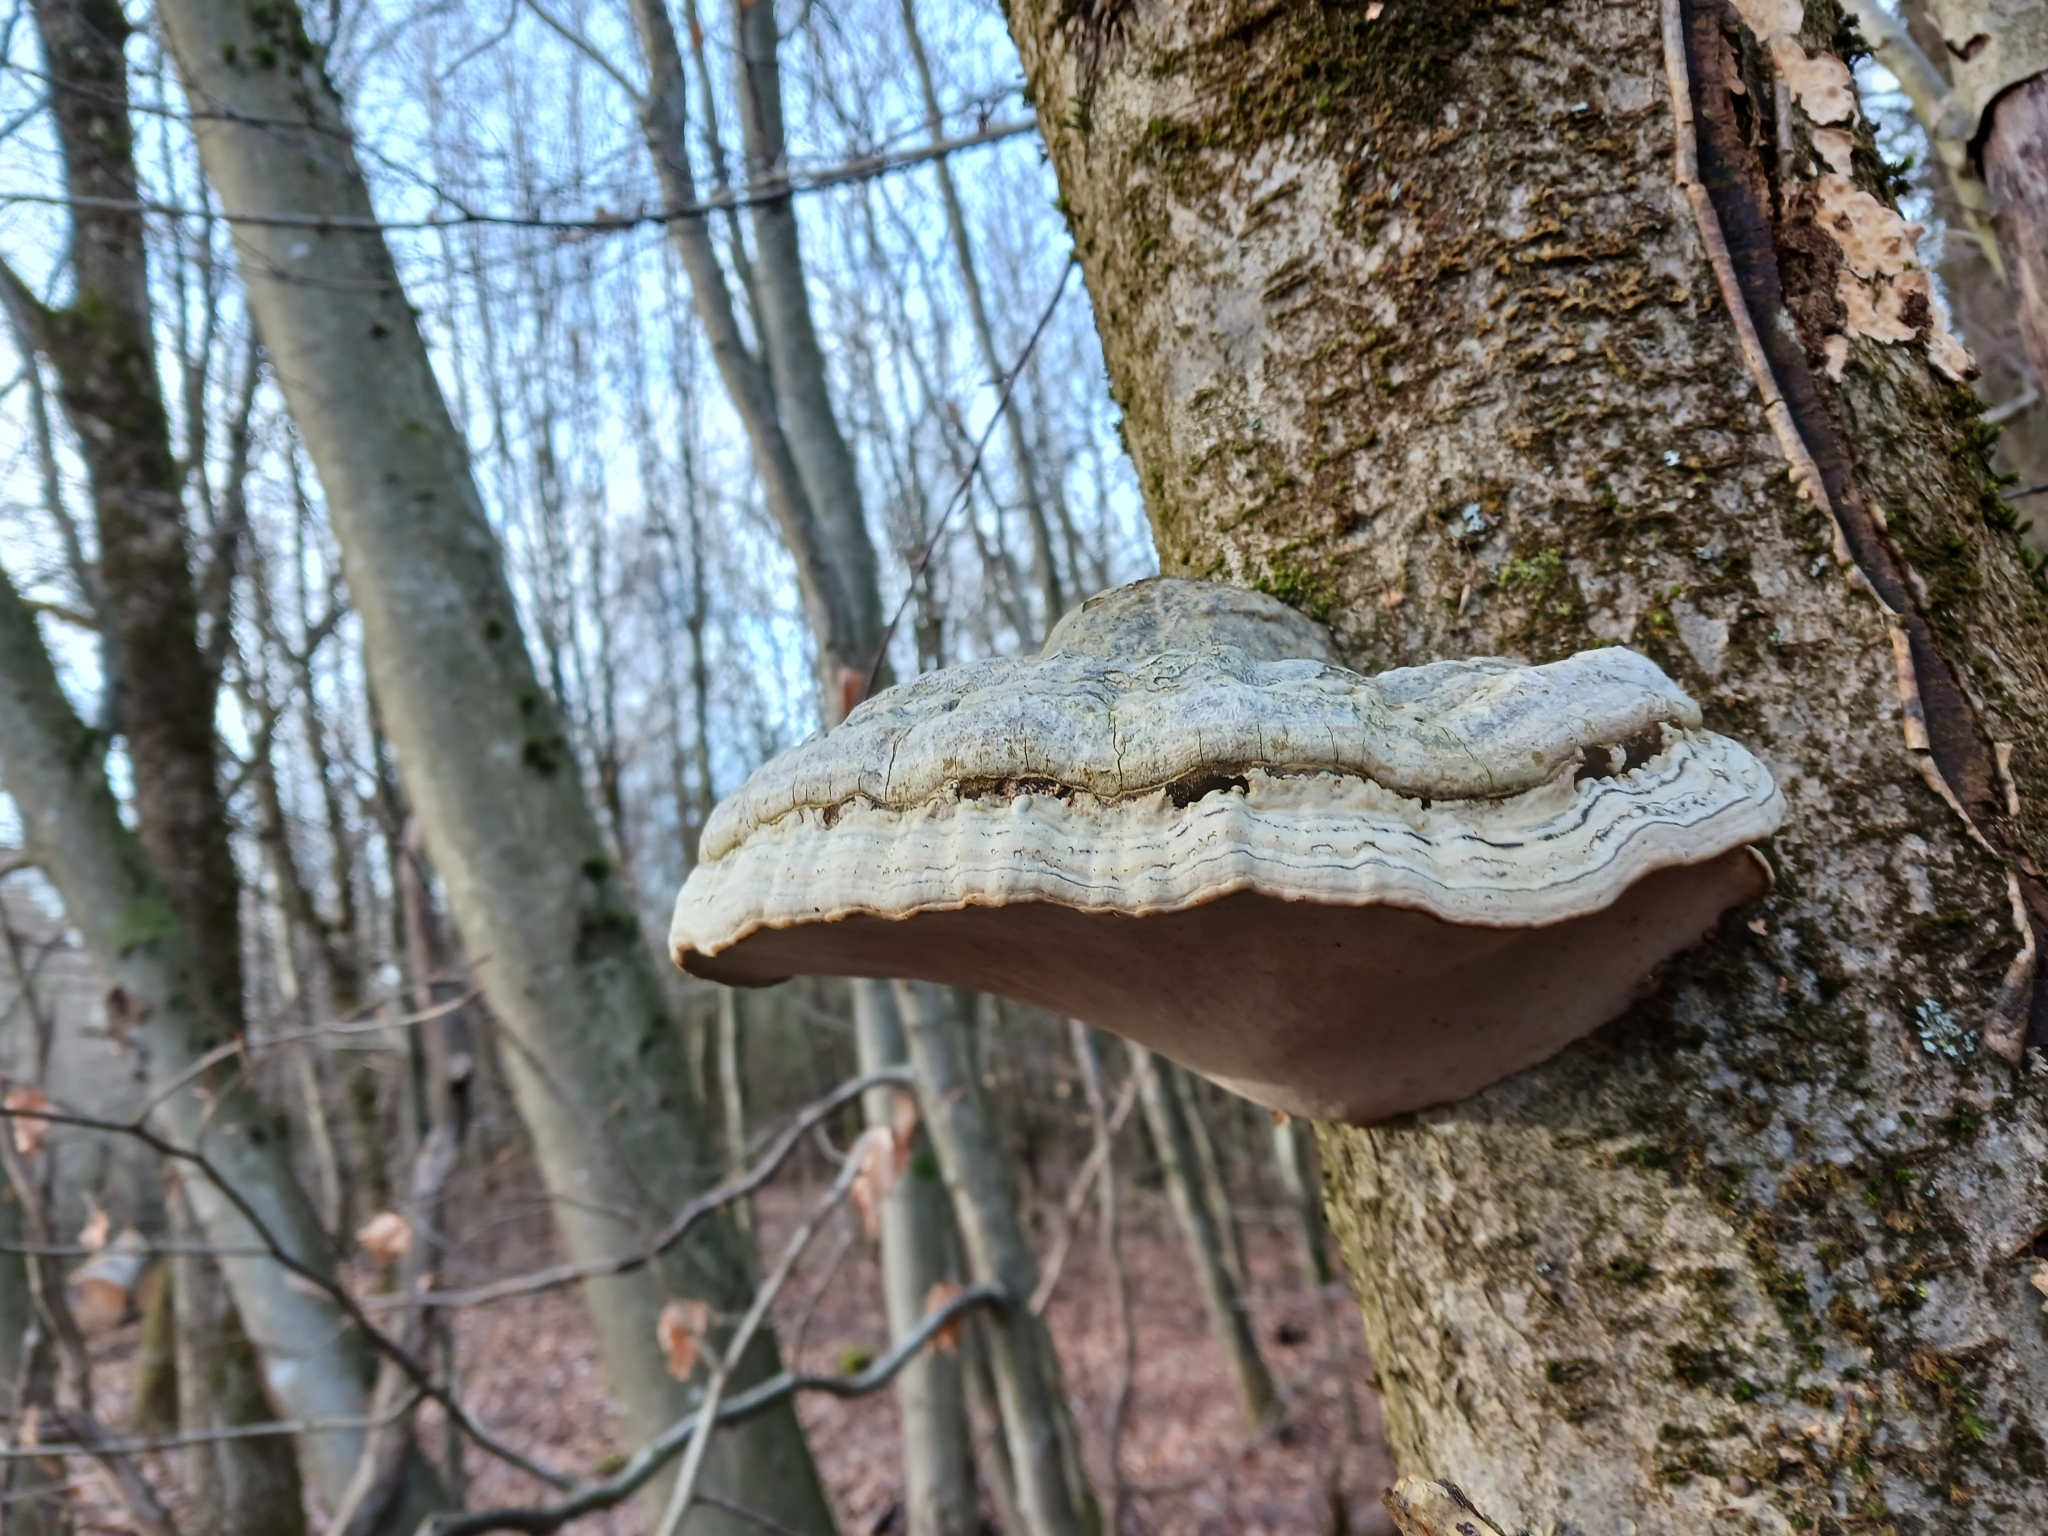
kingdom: Fungi
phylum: Basidiomycota
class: Agaricomycetes
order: Polyporales
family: Polyporaceae
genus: Fomes
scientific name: Fomes fomentarius
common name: Hoof fungus
